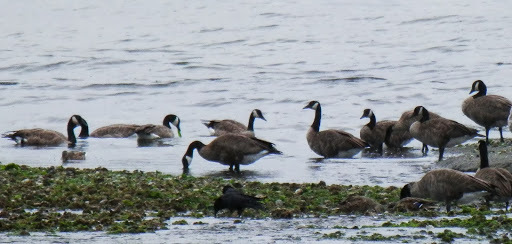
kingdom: Animalia
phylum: Chordata
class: Aves
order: Anseriformes
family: Anatidae
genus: Branta
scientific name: Branta canadensis
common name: Canada goose
